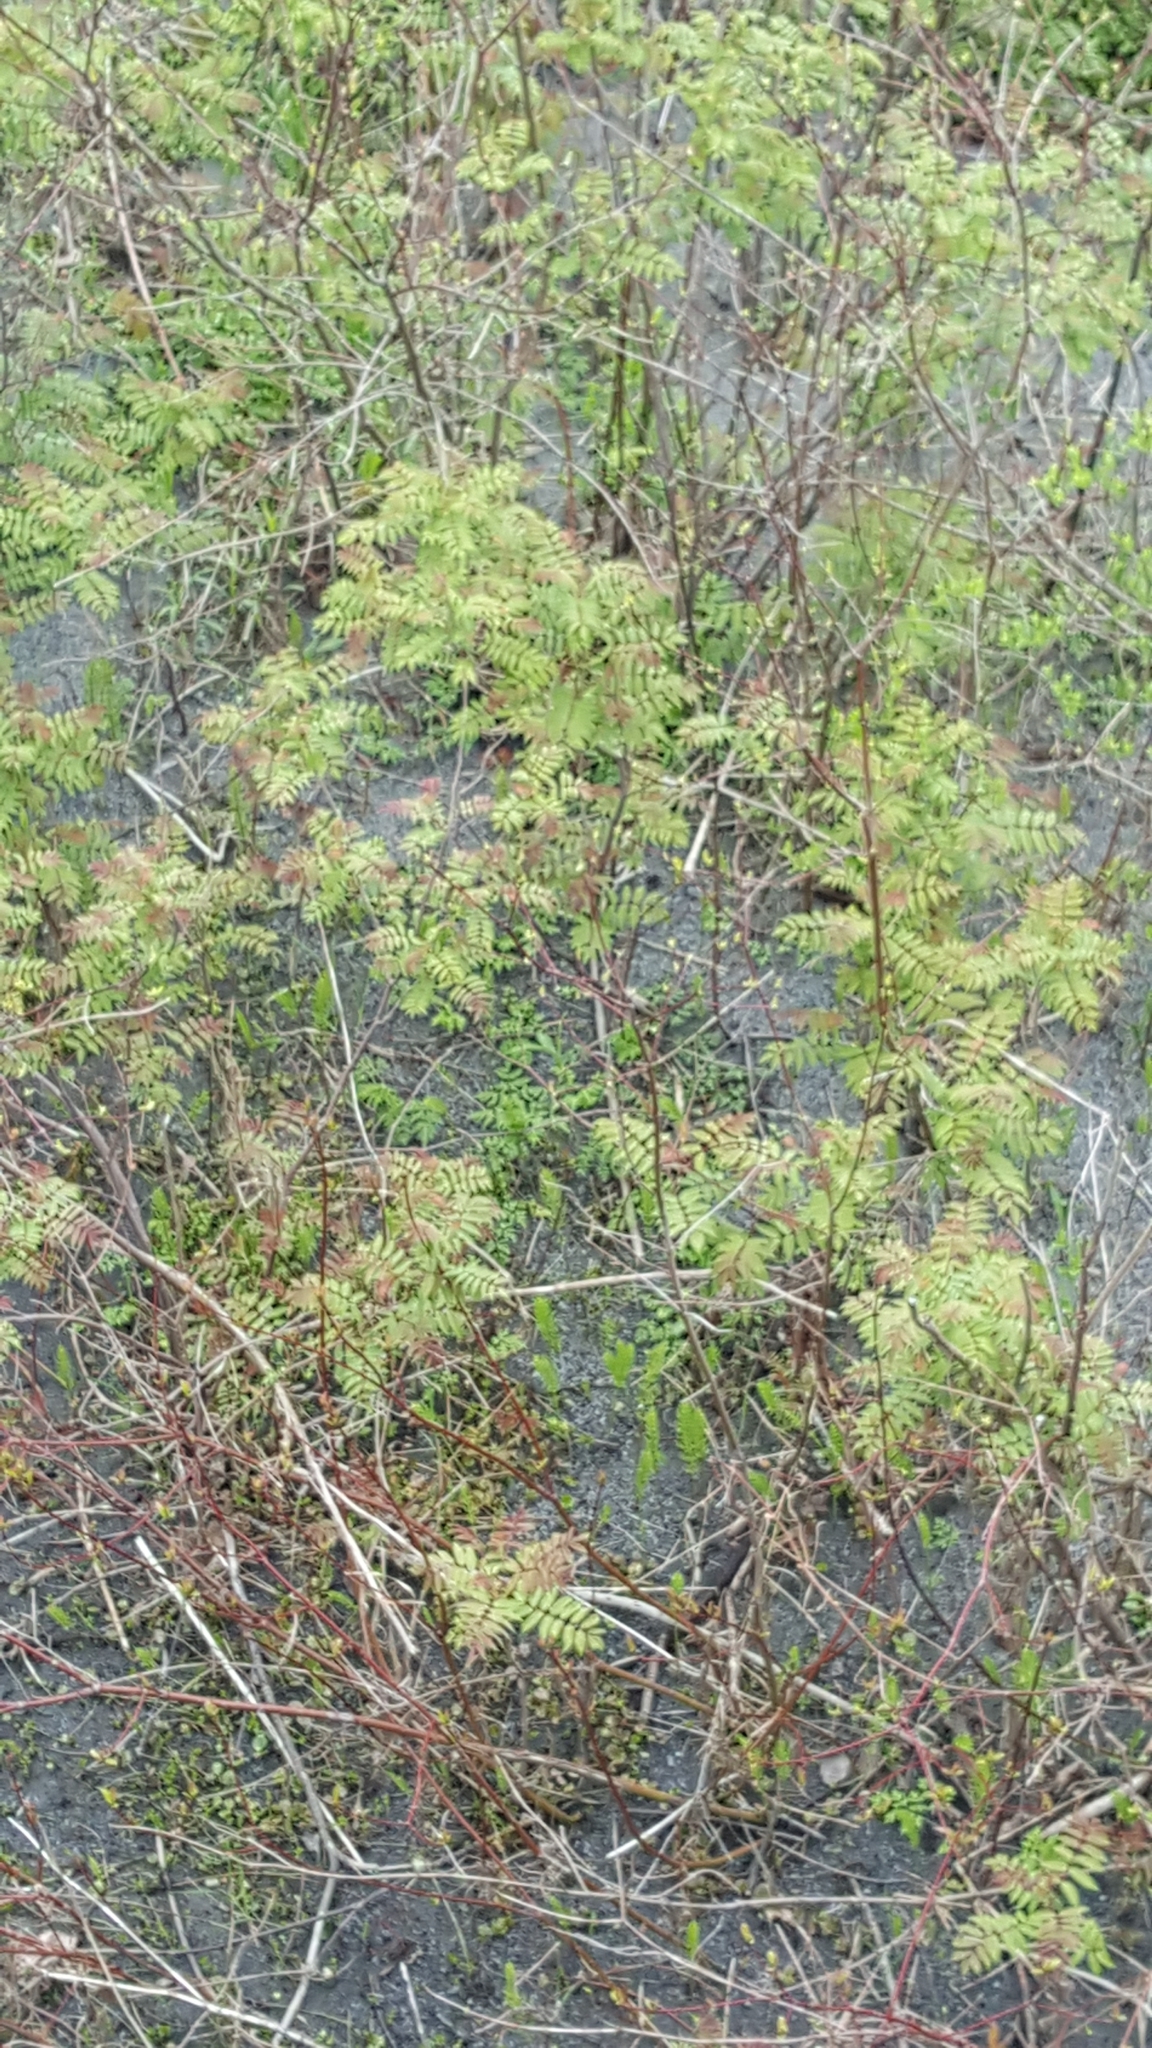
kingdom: Plantae
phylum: Tracheophyta
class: Magnoliopsida
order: Rosales
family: Rosaceae
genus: Sorbaria
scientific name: Sorbaria sorbifolia
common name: False spiraea
